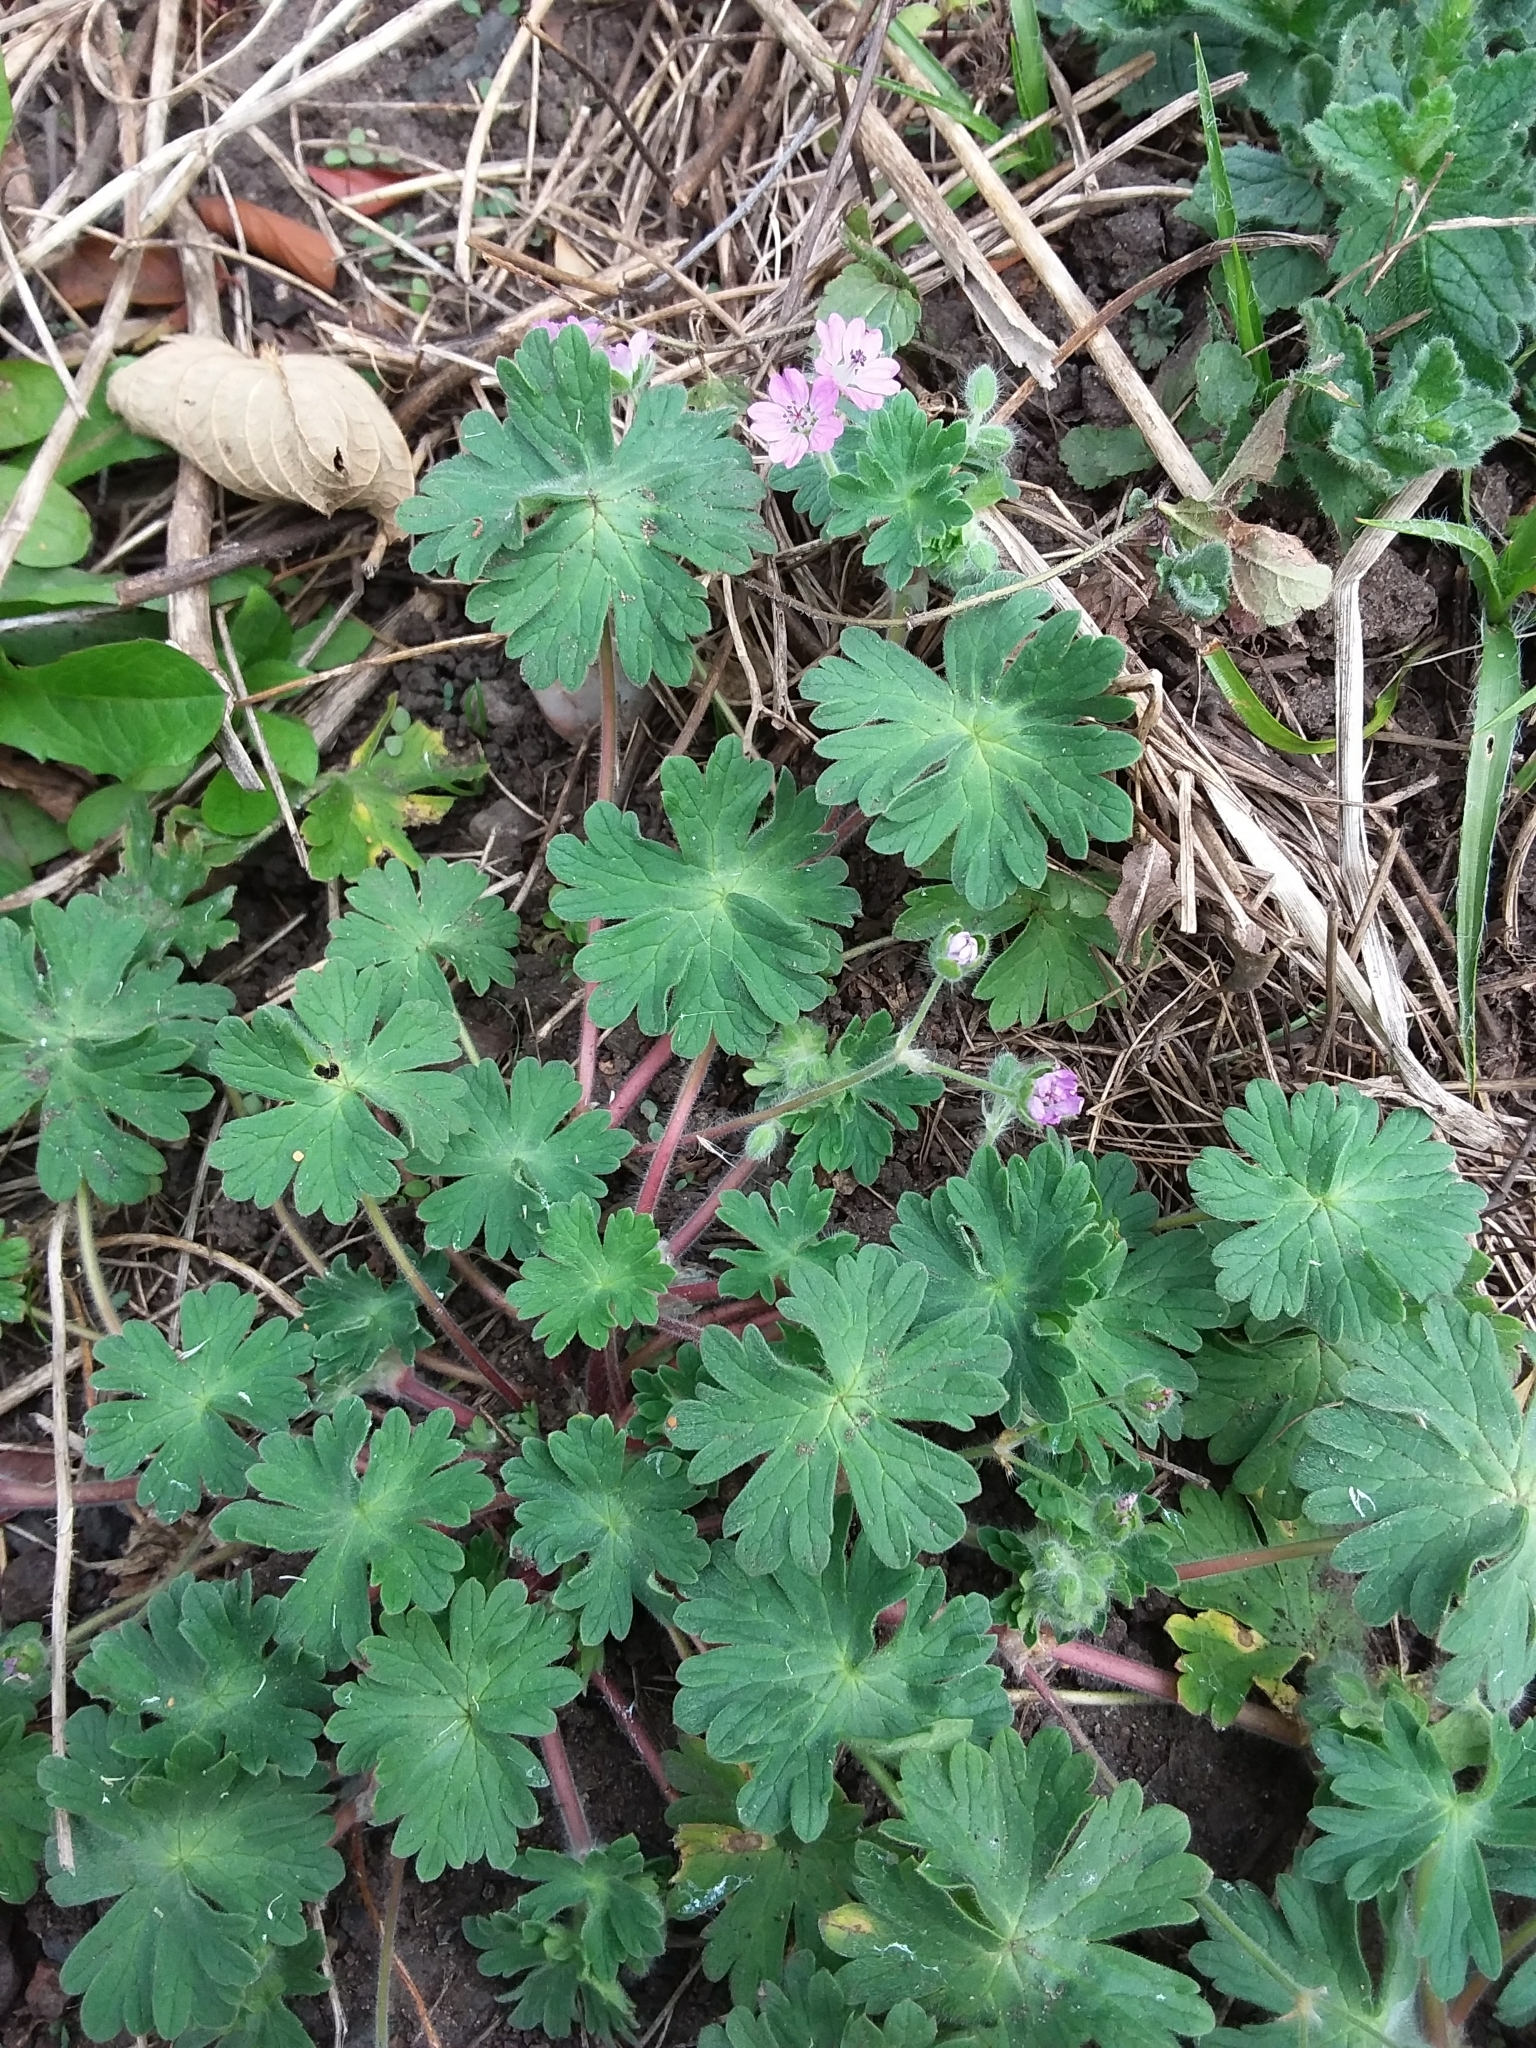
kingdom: Plantae
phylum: Tracheophyta
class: Magnoliopsida
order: Geraniales
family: Geraniaceae
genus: Geranium
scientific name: Geranium molle
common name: Dove's-foot crane's-bill
